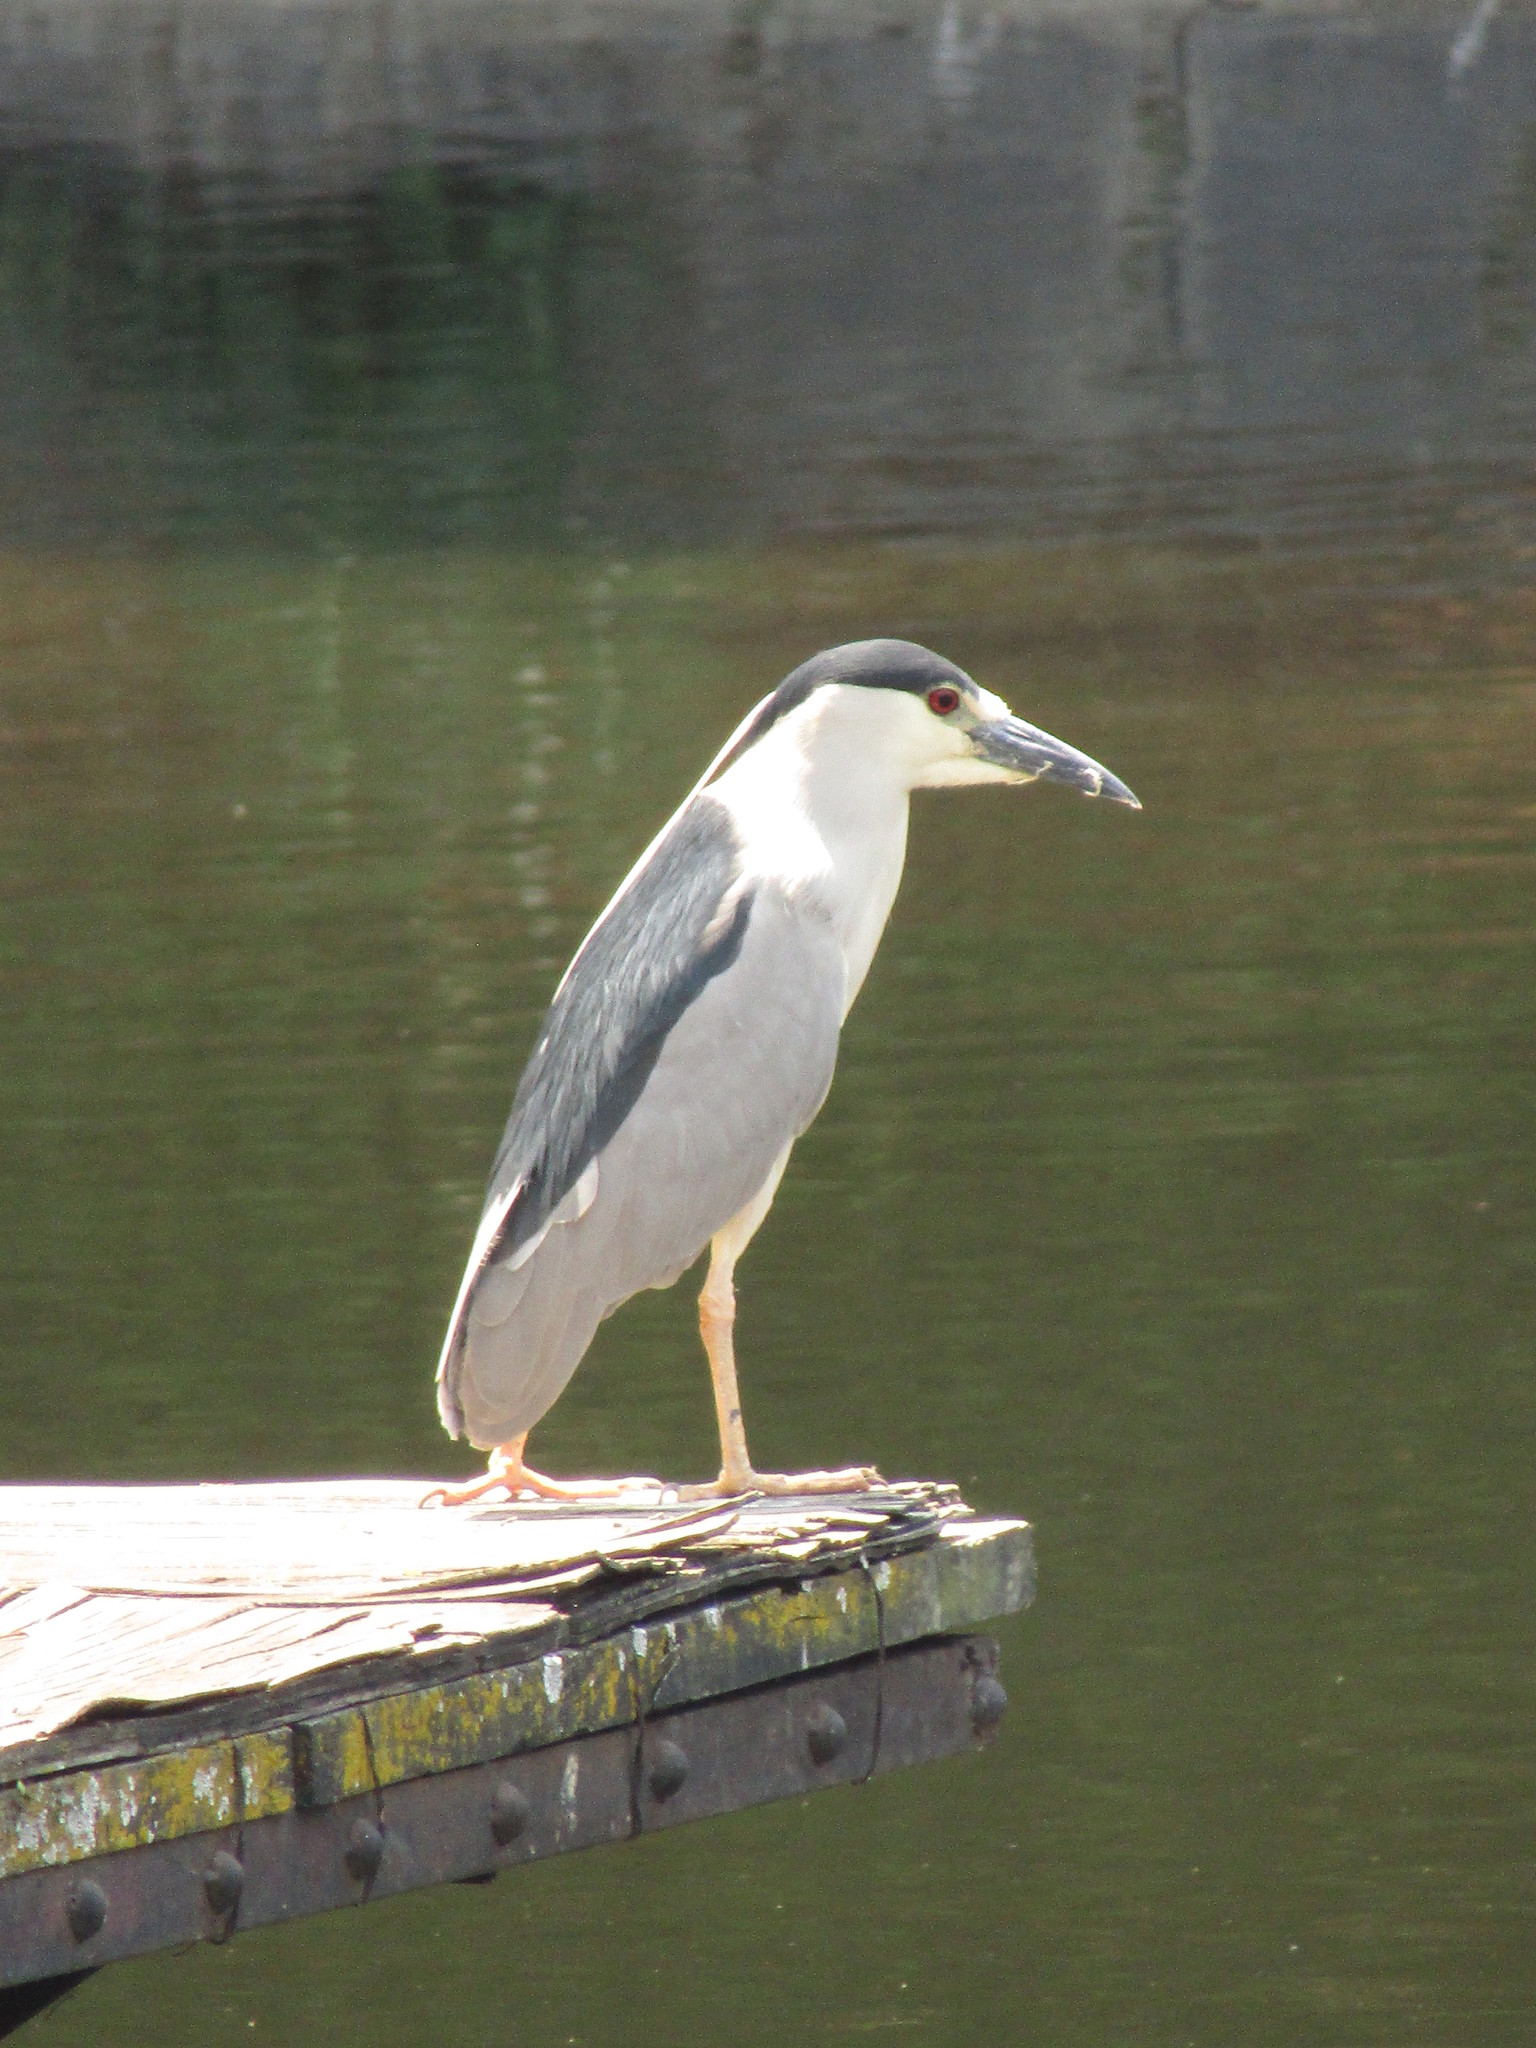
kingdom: Animalia
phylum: Chordata
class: Aves
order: Pelecaniformes
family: Ardeidae
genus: Nycticorax
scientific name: Nycticorax nycticorax
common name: Black-crowned night heron
